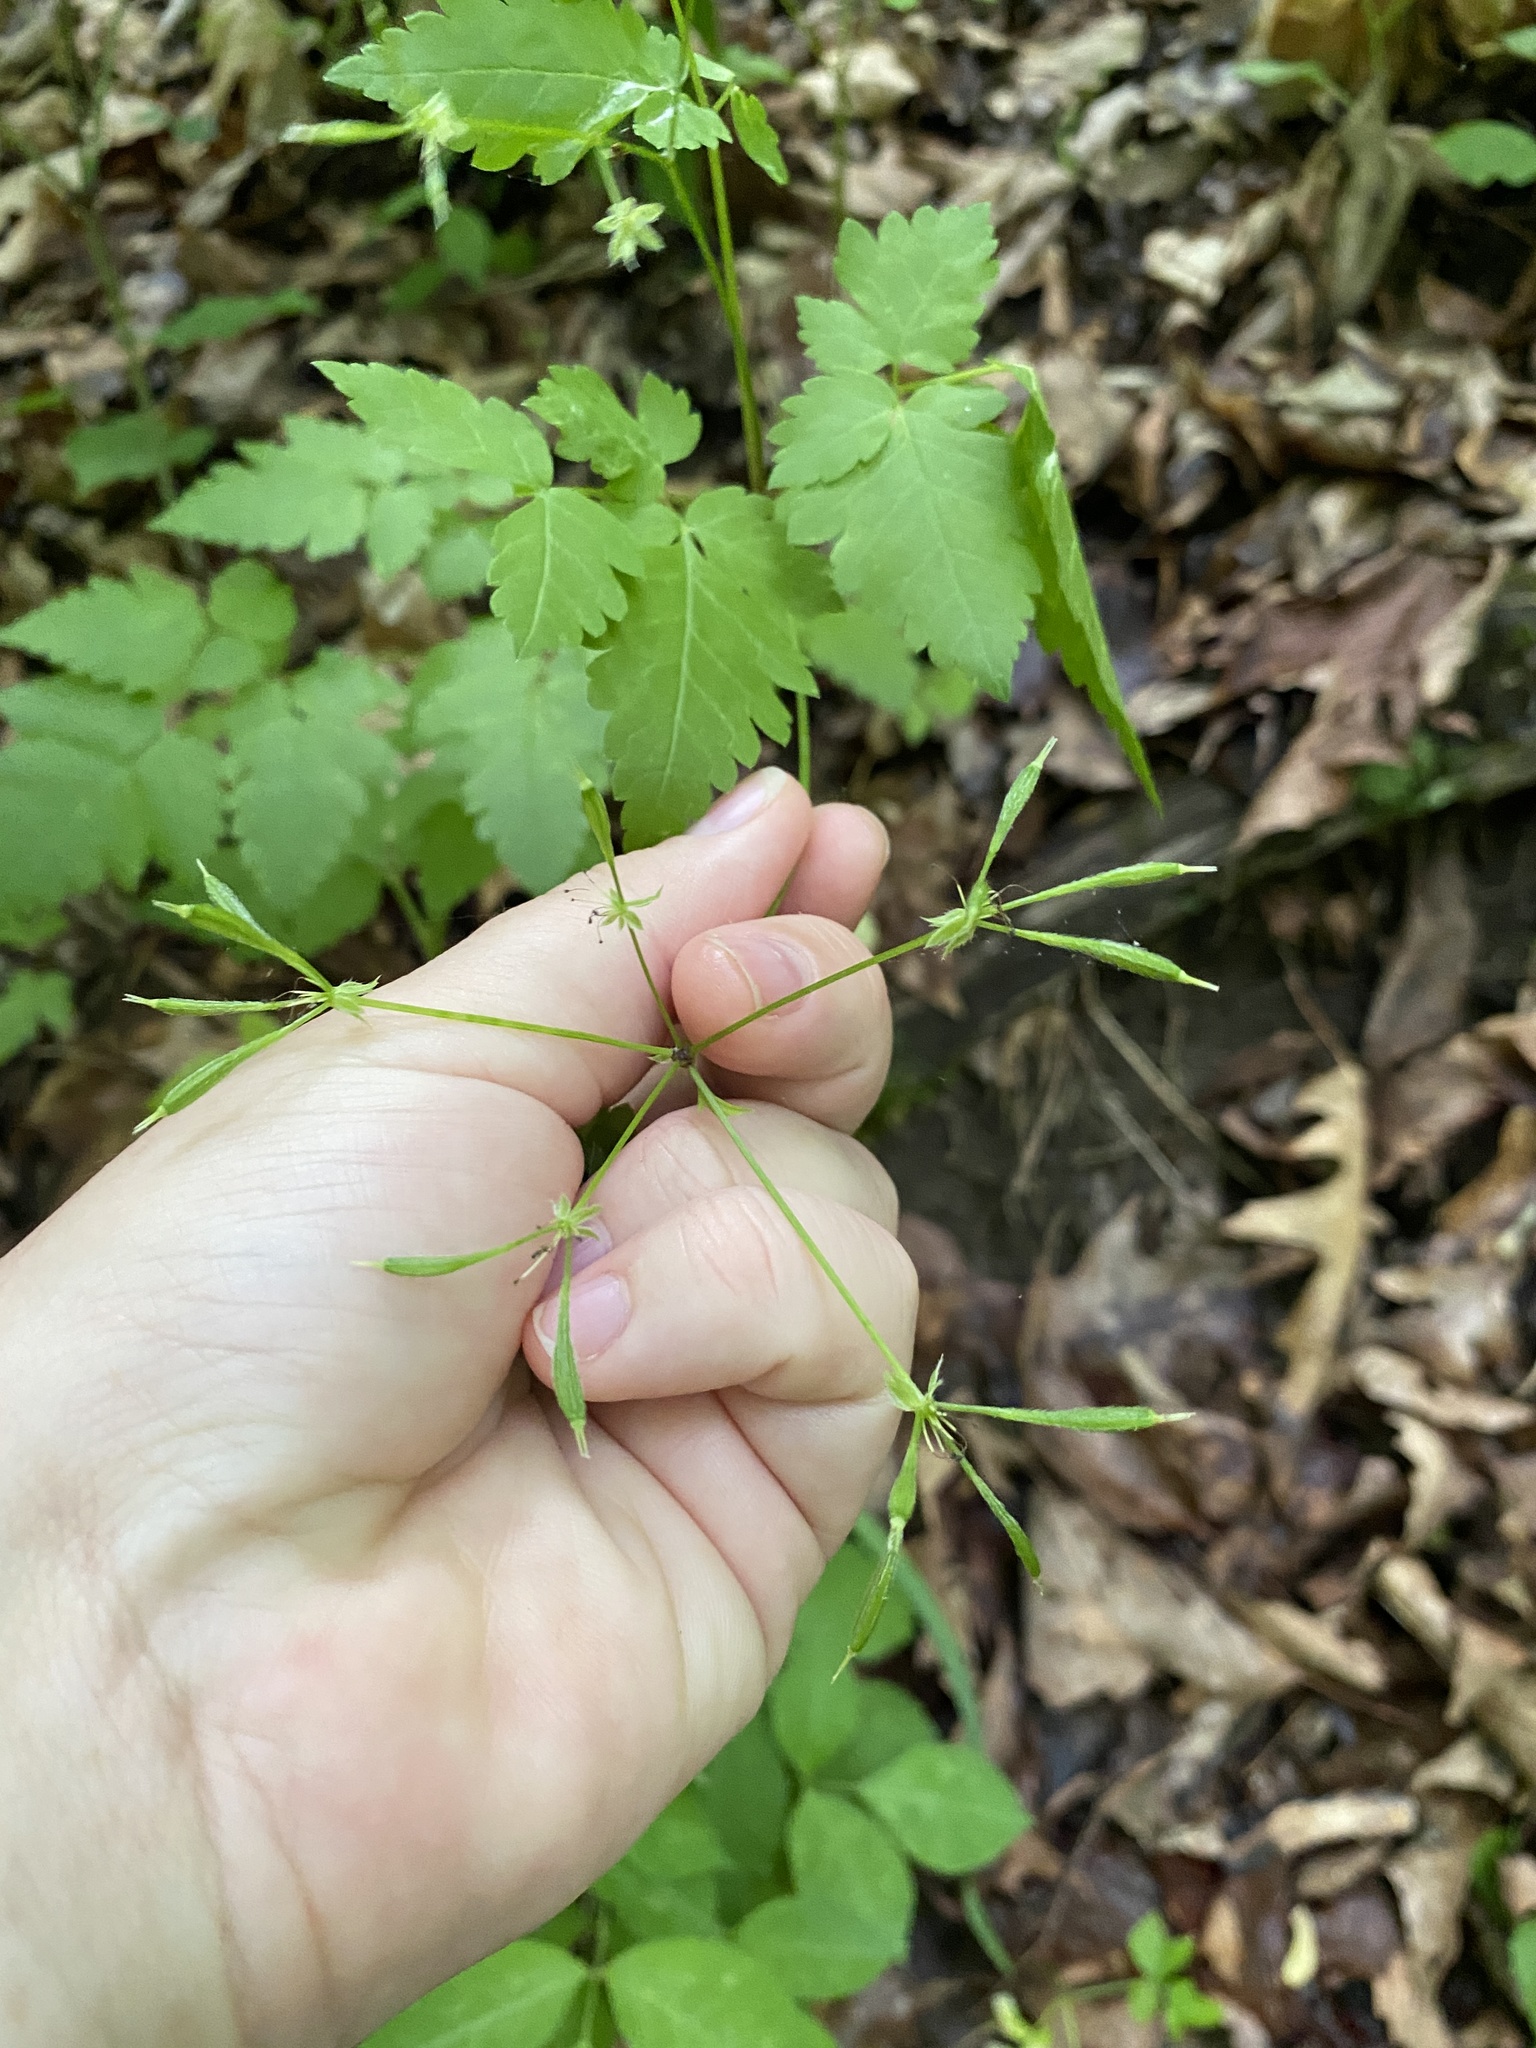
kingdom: Plantae
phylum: Tracheophyta
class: Magnoliopsida
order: Apiales
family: Apiaceae
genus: Osmorhiza
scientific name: Osmorhiza longistylis
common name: Smooth sweet cicely
